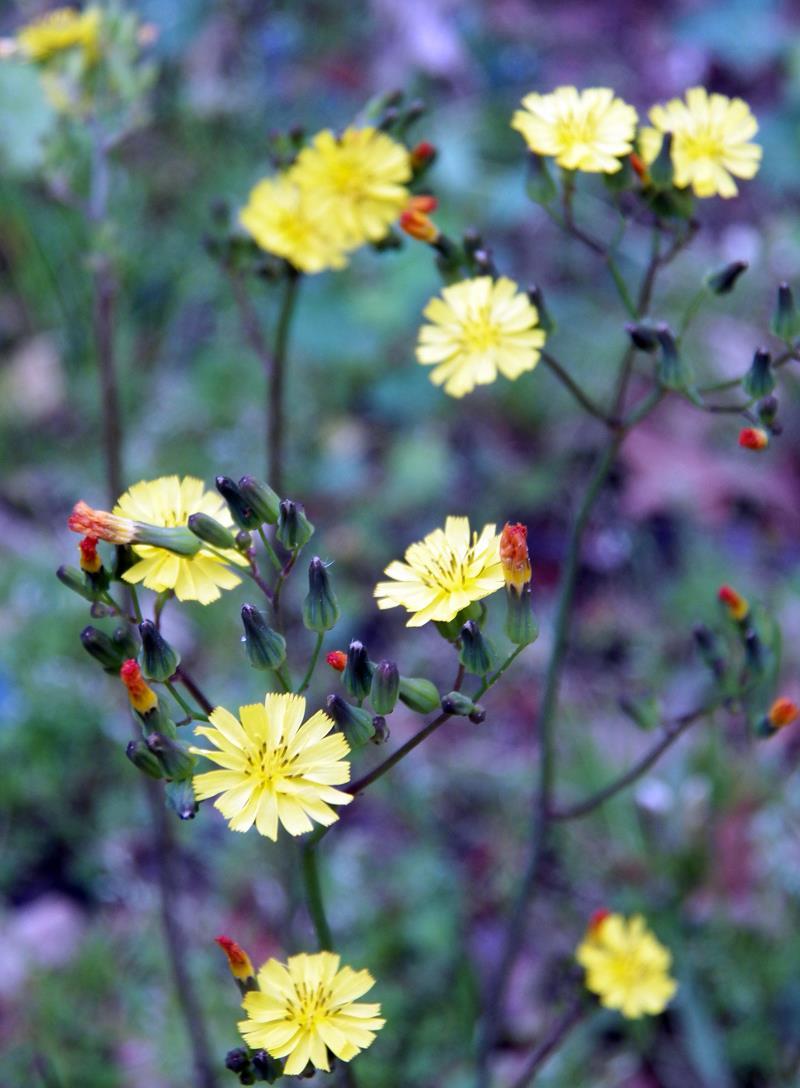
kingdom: Plantae
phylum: Tracheophyta
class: Magnoliopsida
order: Asterales
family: Asteraceae
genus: Youngia
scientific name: Youngia japonica
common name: Oriental false hawksbeard
